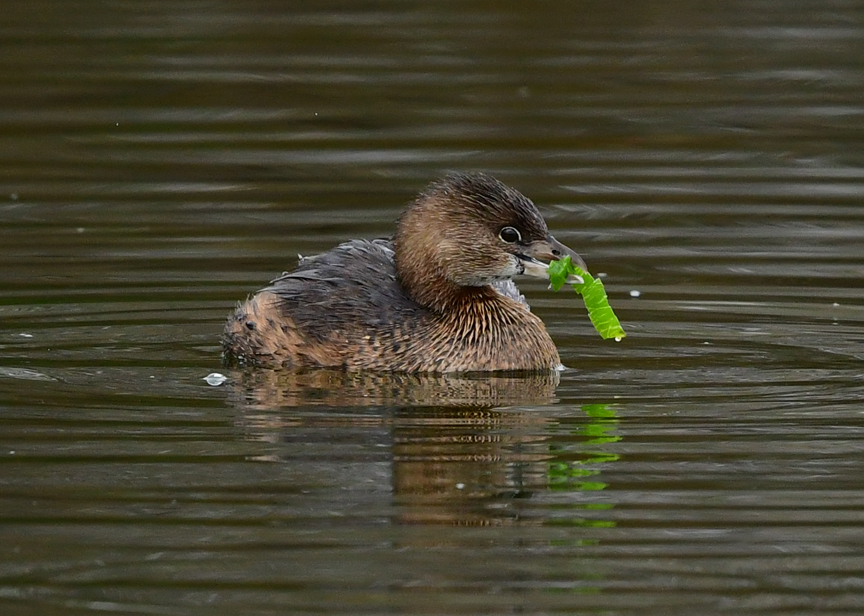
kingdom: Animalia
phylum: Chordata
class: Aves
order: Podicipediformes
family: Podicipedidae
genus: Podilymbus
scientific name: Podilymbus podiceps
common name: Pied-billed grebe
